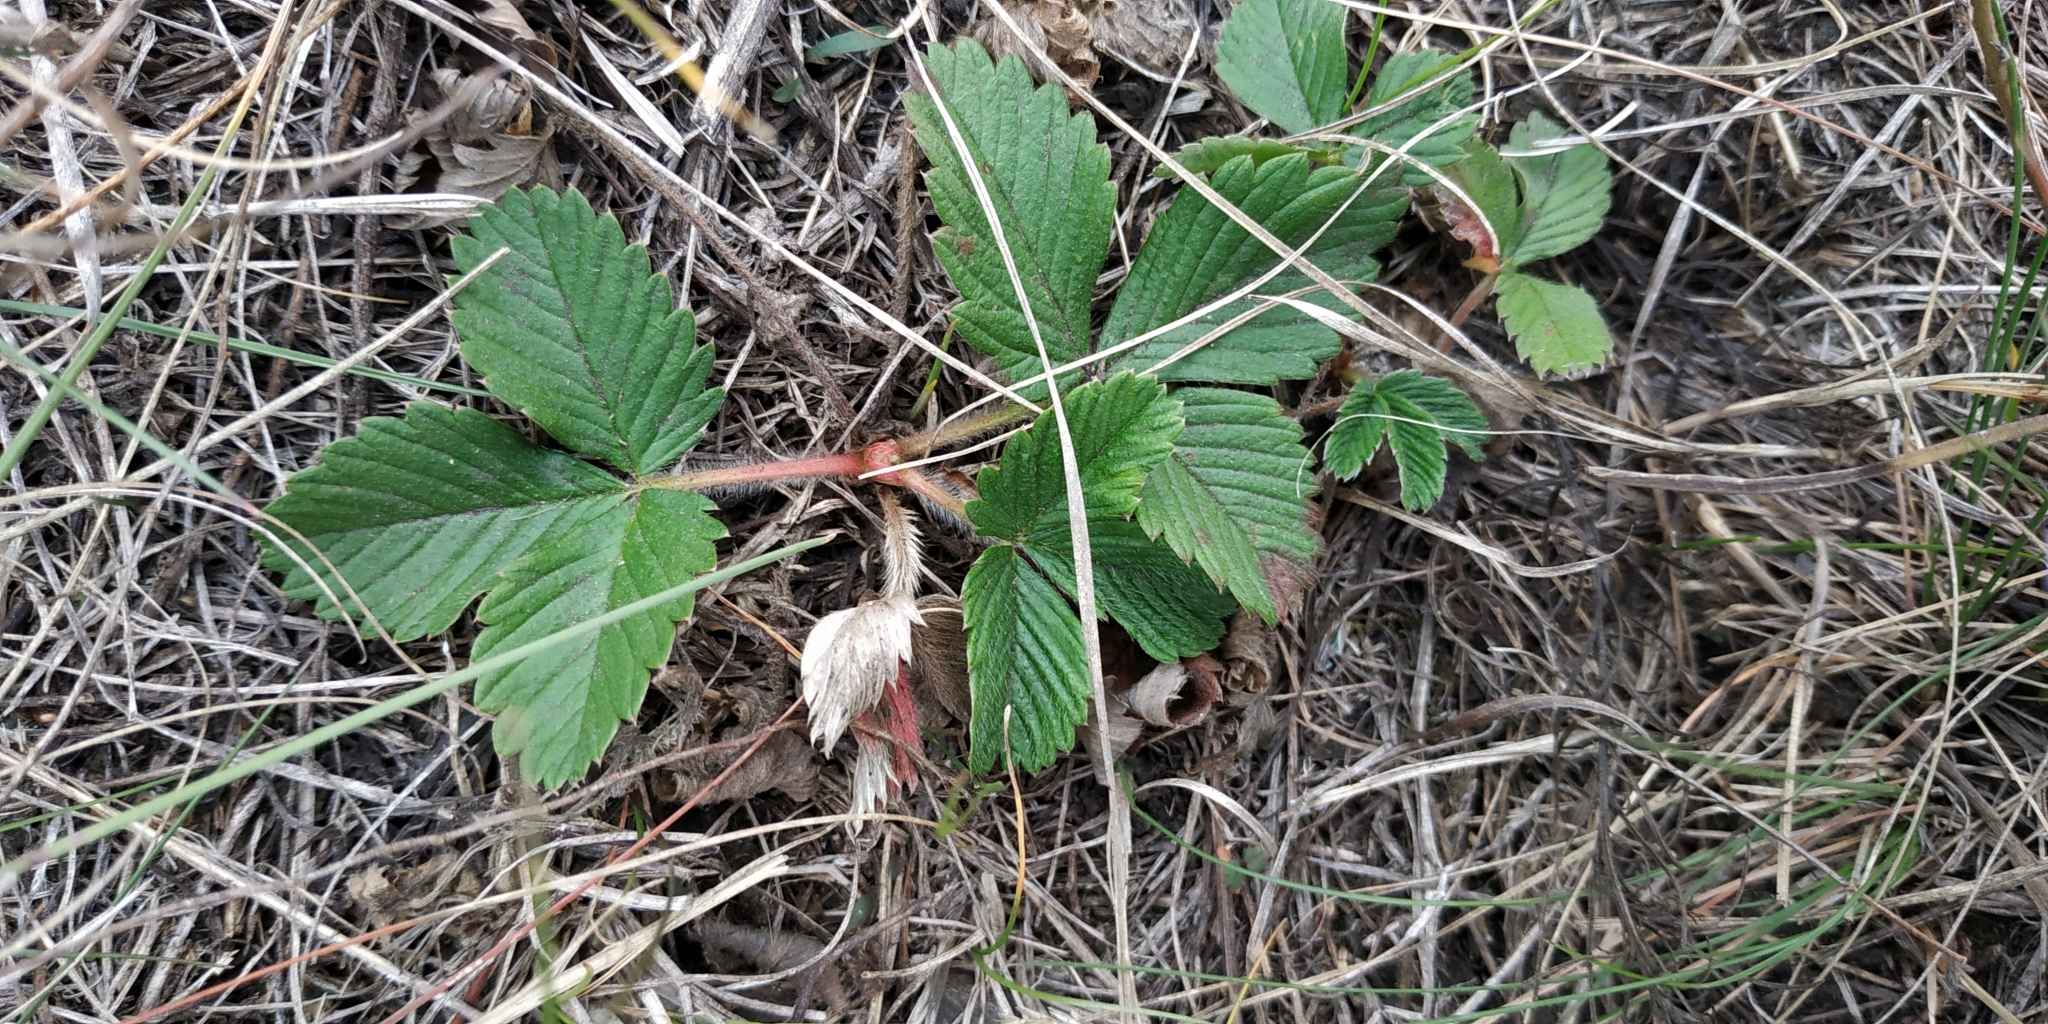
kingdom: Plantae
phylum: Tracheophyta
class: Magnoliopsida
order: Rosales
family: Rosaceae
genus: Fragaria
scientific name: Fragaria viridis
